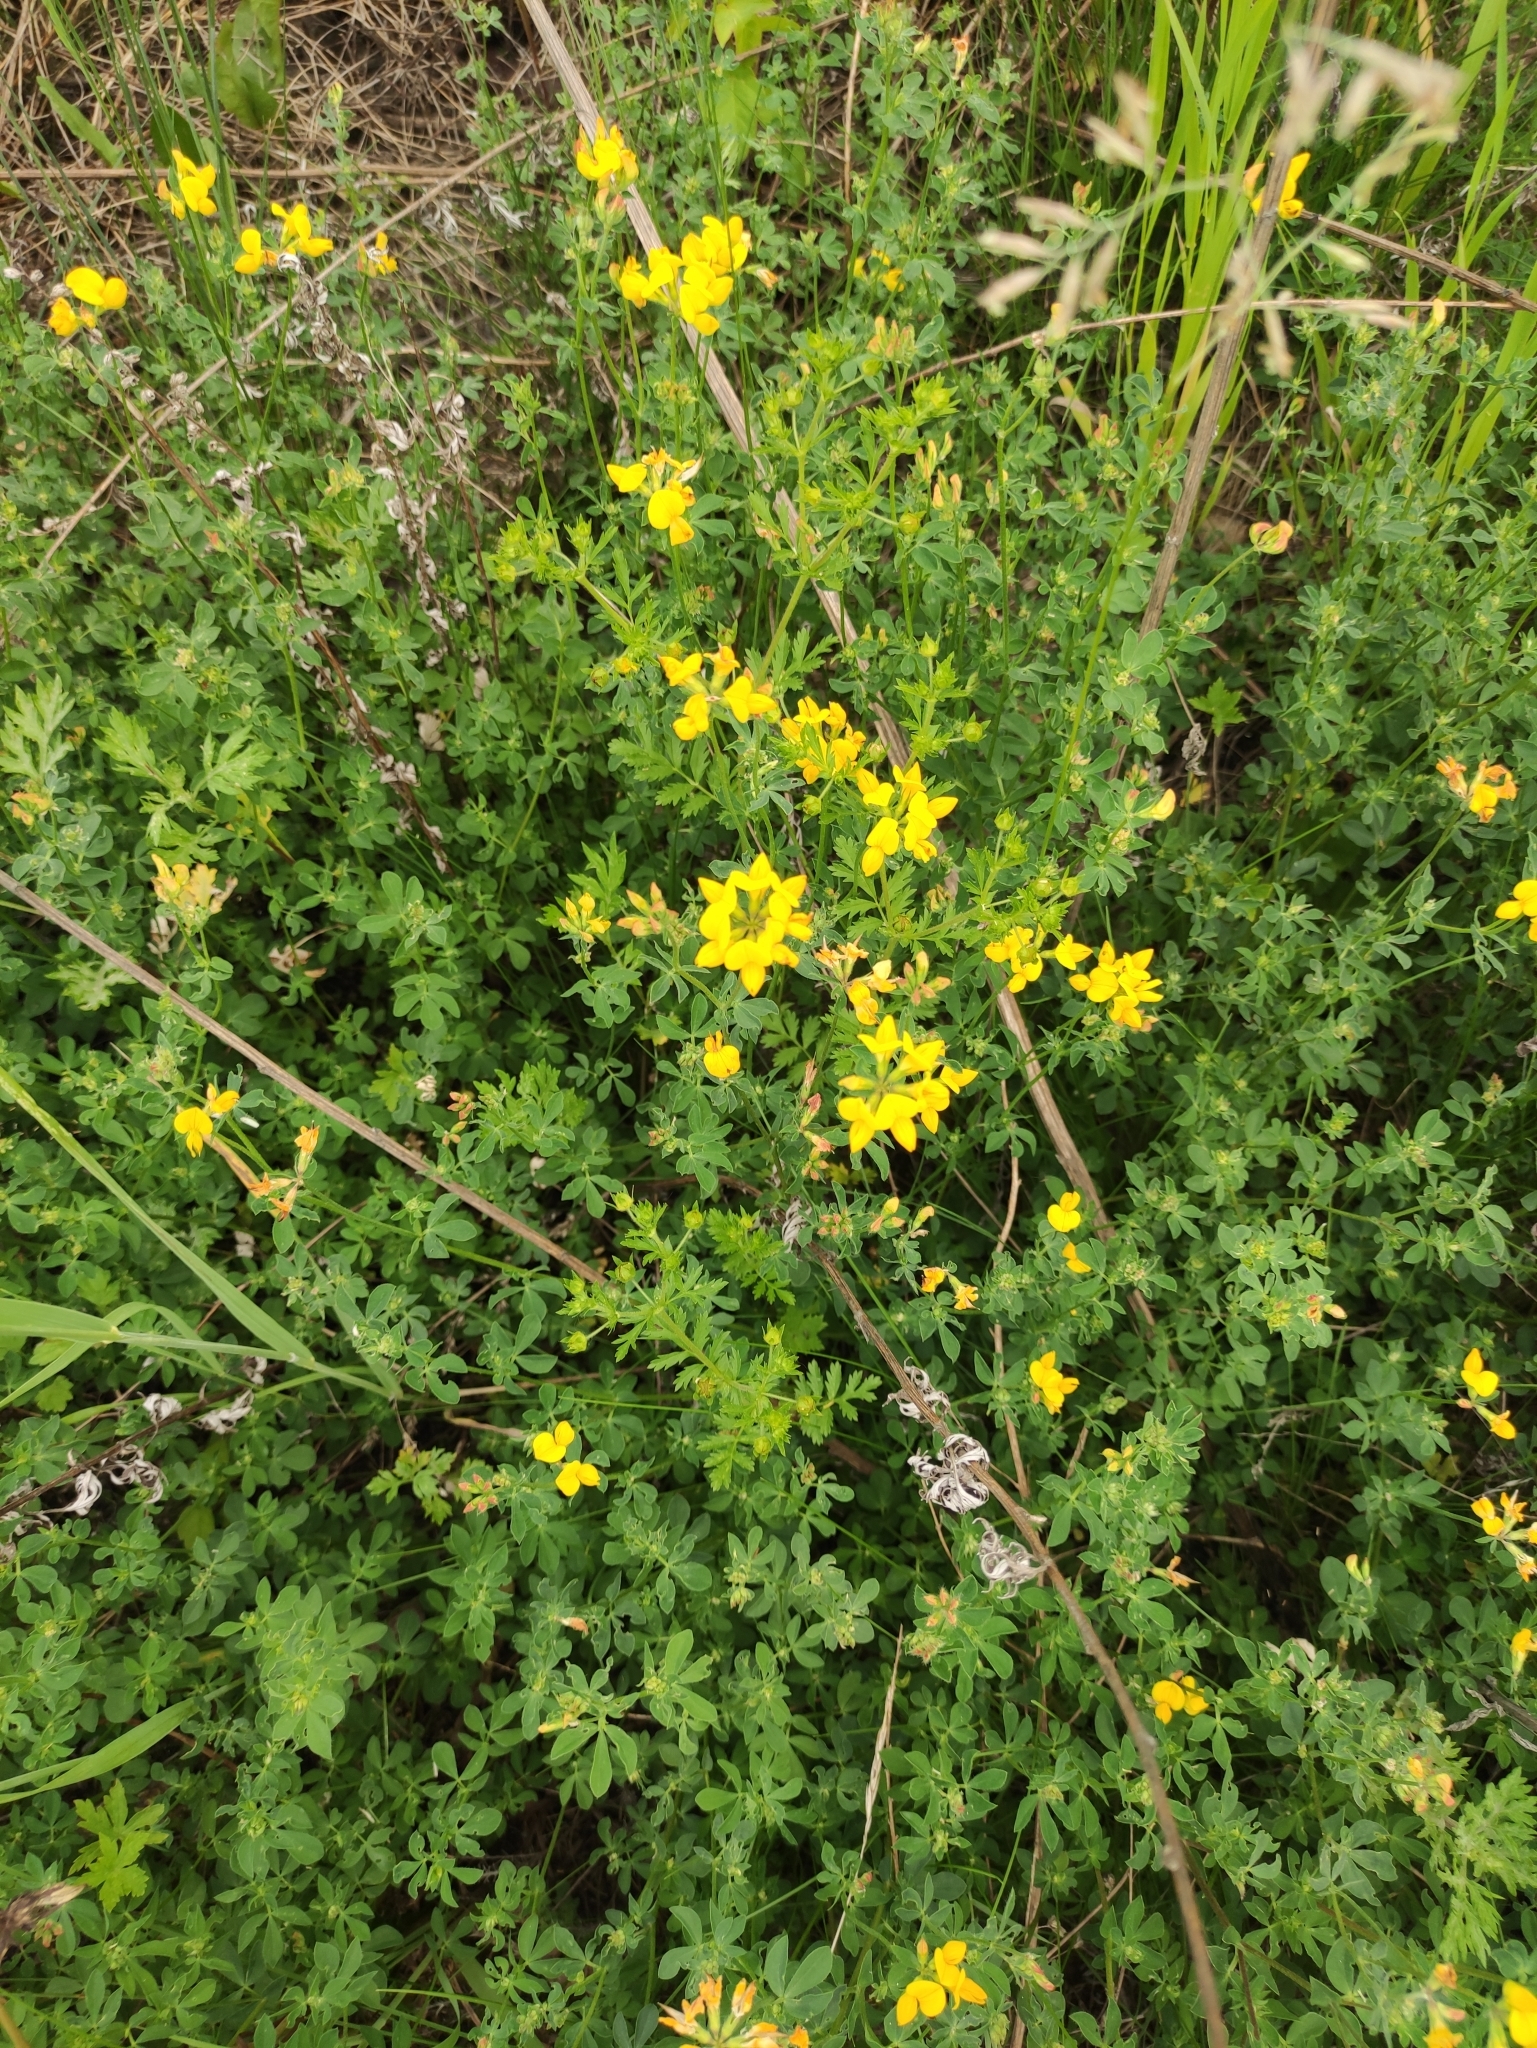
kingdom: Plantae
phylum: Tracheophyta
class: Magnoliopsida
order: Fabales
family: Fabaceae
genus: Lotus
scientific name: Lotus corniculatus
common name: Common bird's-foot-trefoil
